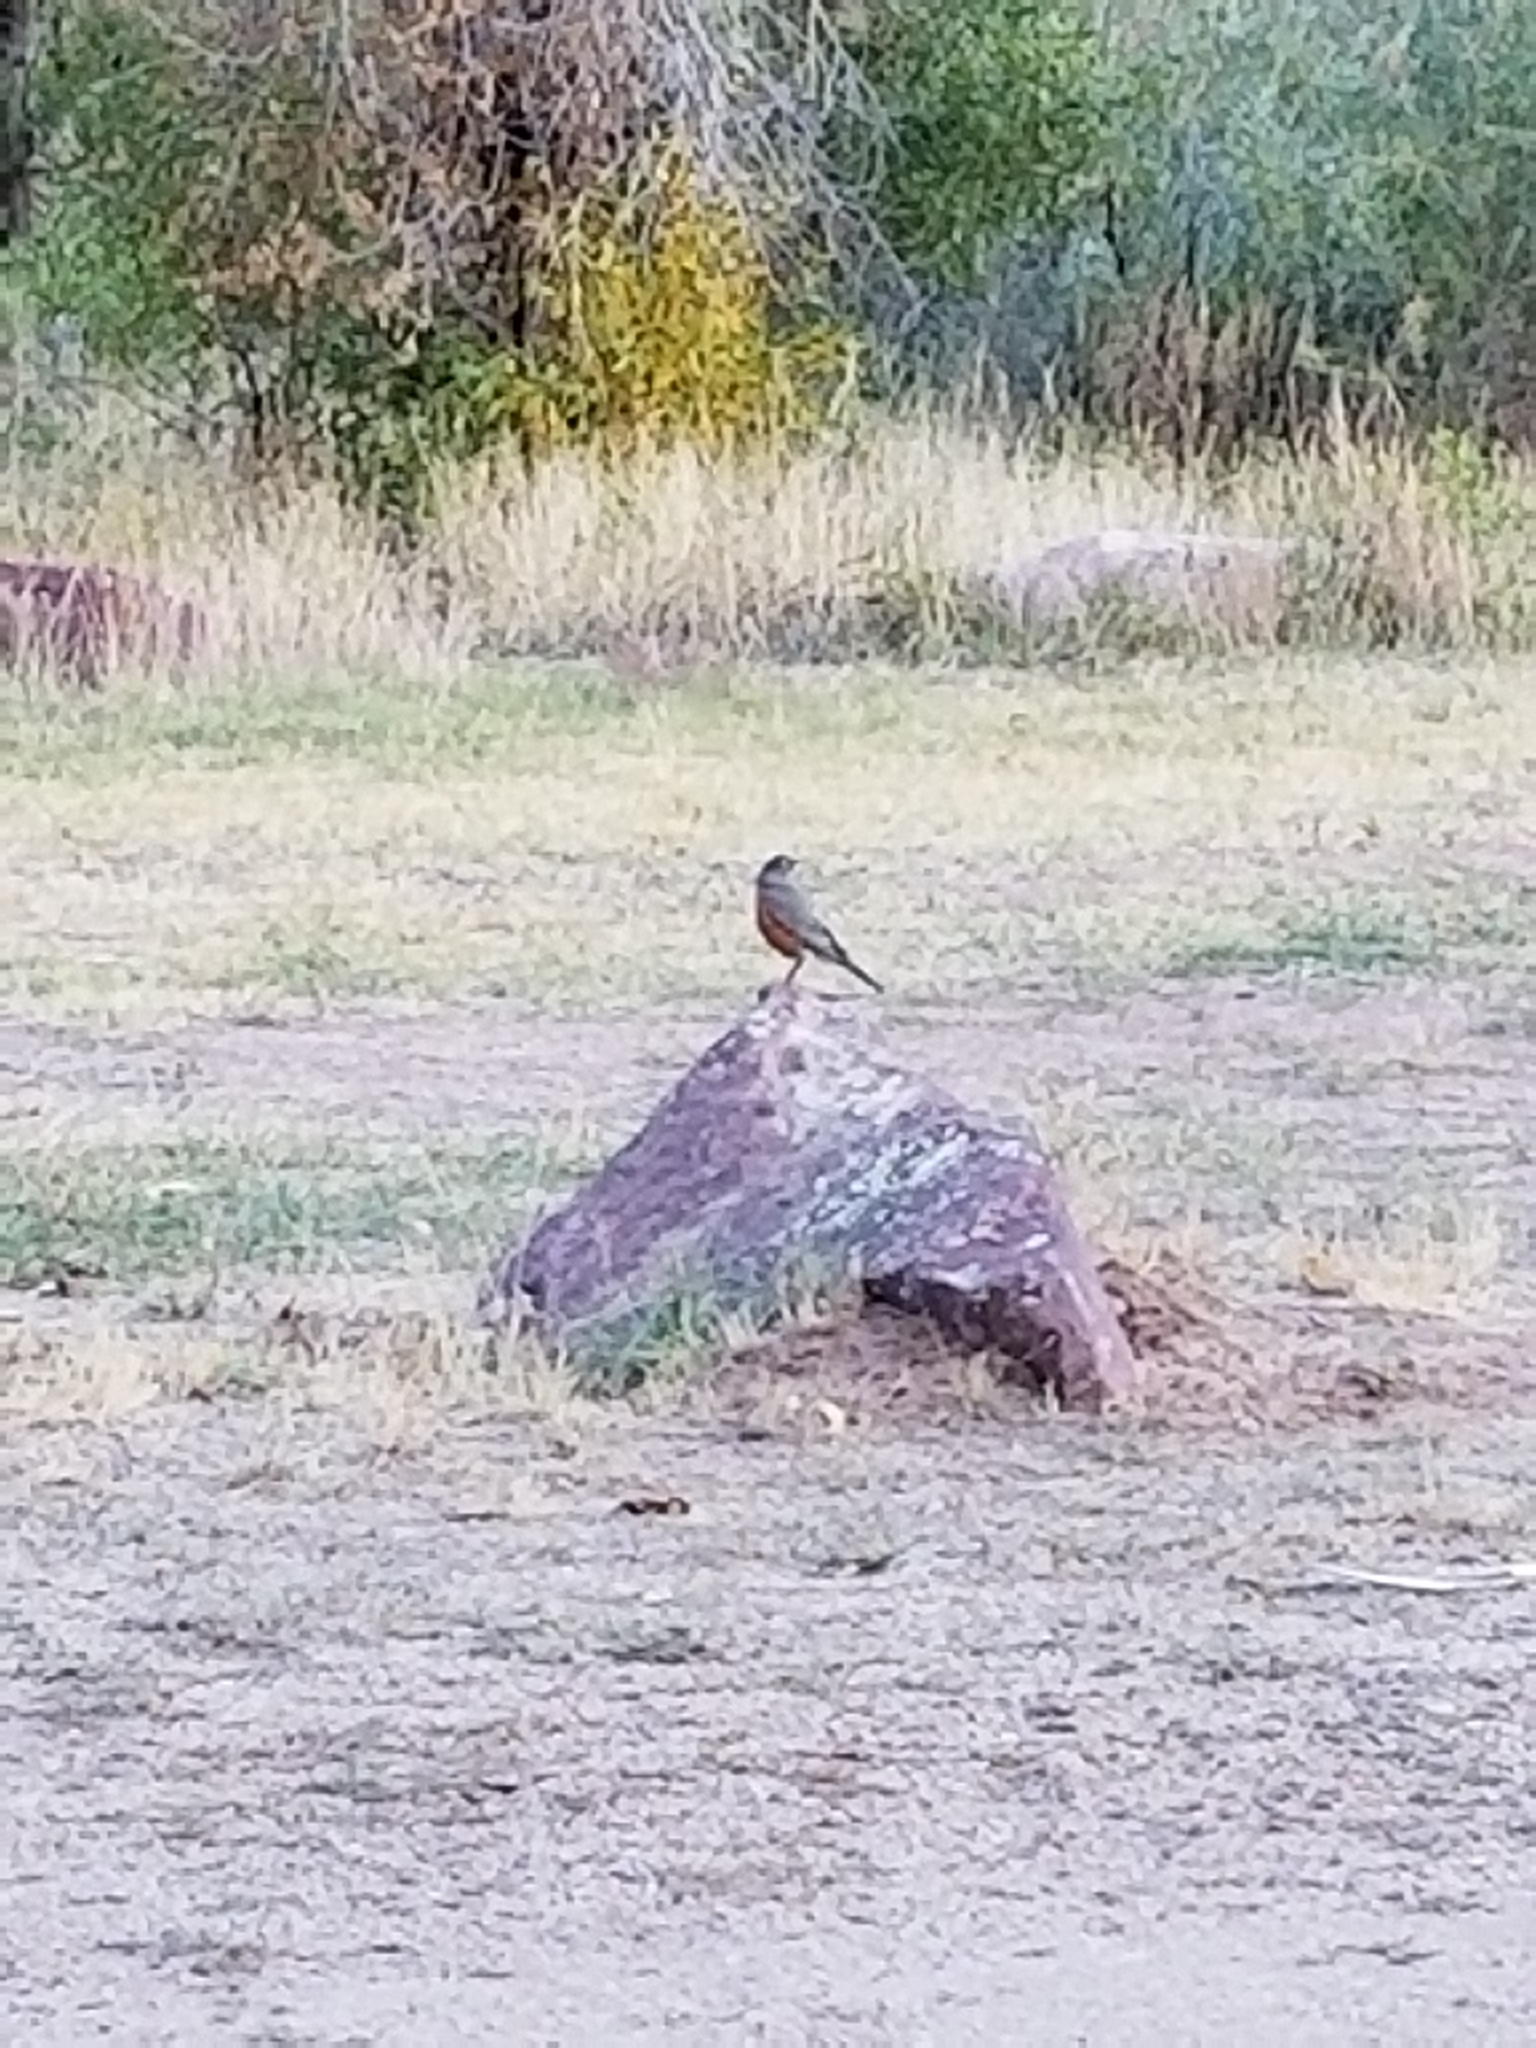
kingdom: Animalia
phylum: Chordata
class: Aves
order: Passeriformes
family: Turdidae
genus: Turdus
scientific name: Turdus migratorius
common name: American robin
